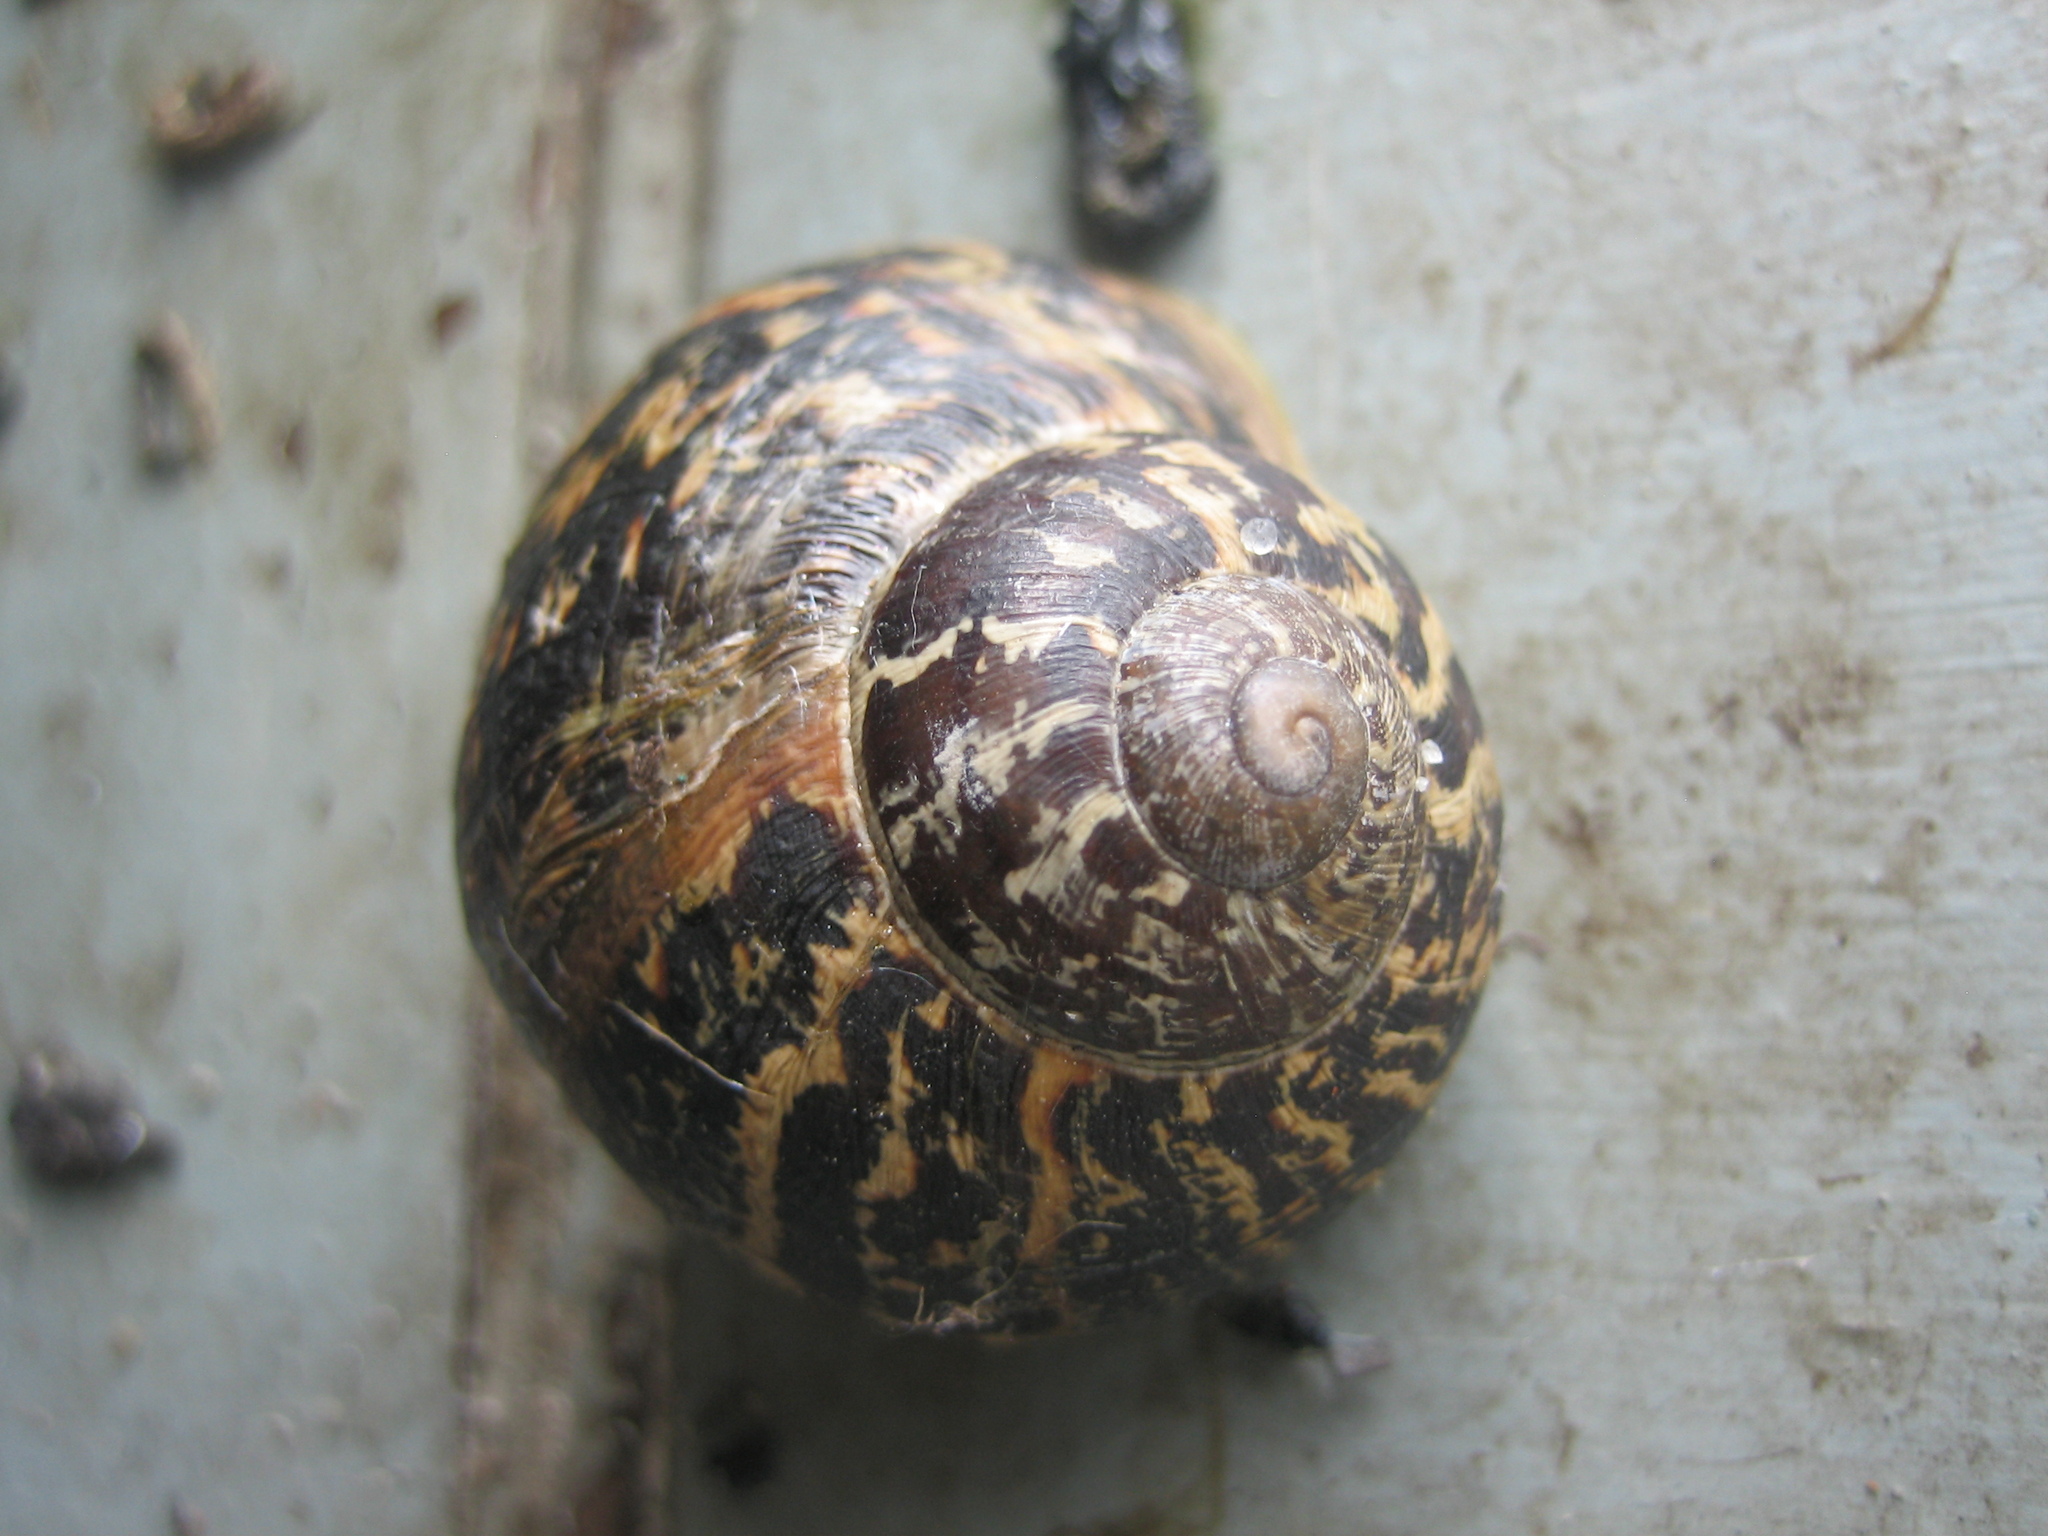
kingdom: Animalia
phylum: Mollusca
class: Gastropoda
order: Stylommatophora
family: Helicidae
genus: Cornu
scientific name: Cornu aspersum
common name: Brown garden snail
